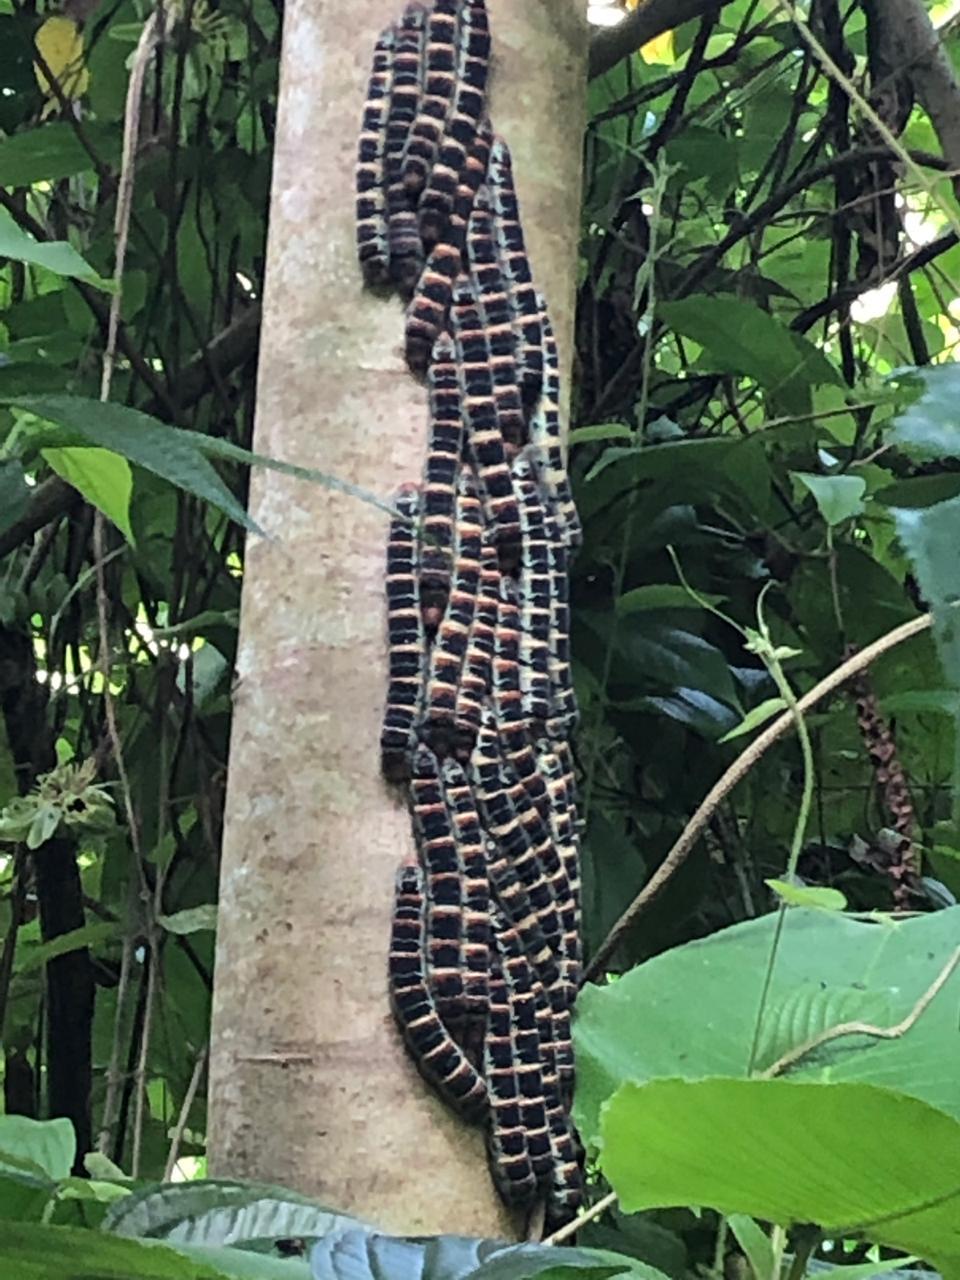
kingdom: Animalia
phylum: Arthropoda
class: Insecta
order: Lepidoptera
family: Saturniidae
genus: Arsenura
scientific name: Arsenura armida
